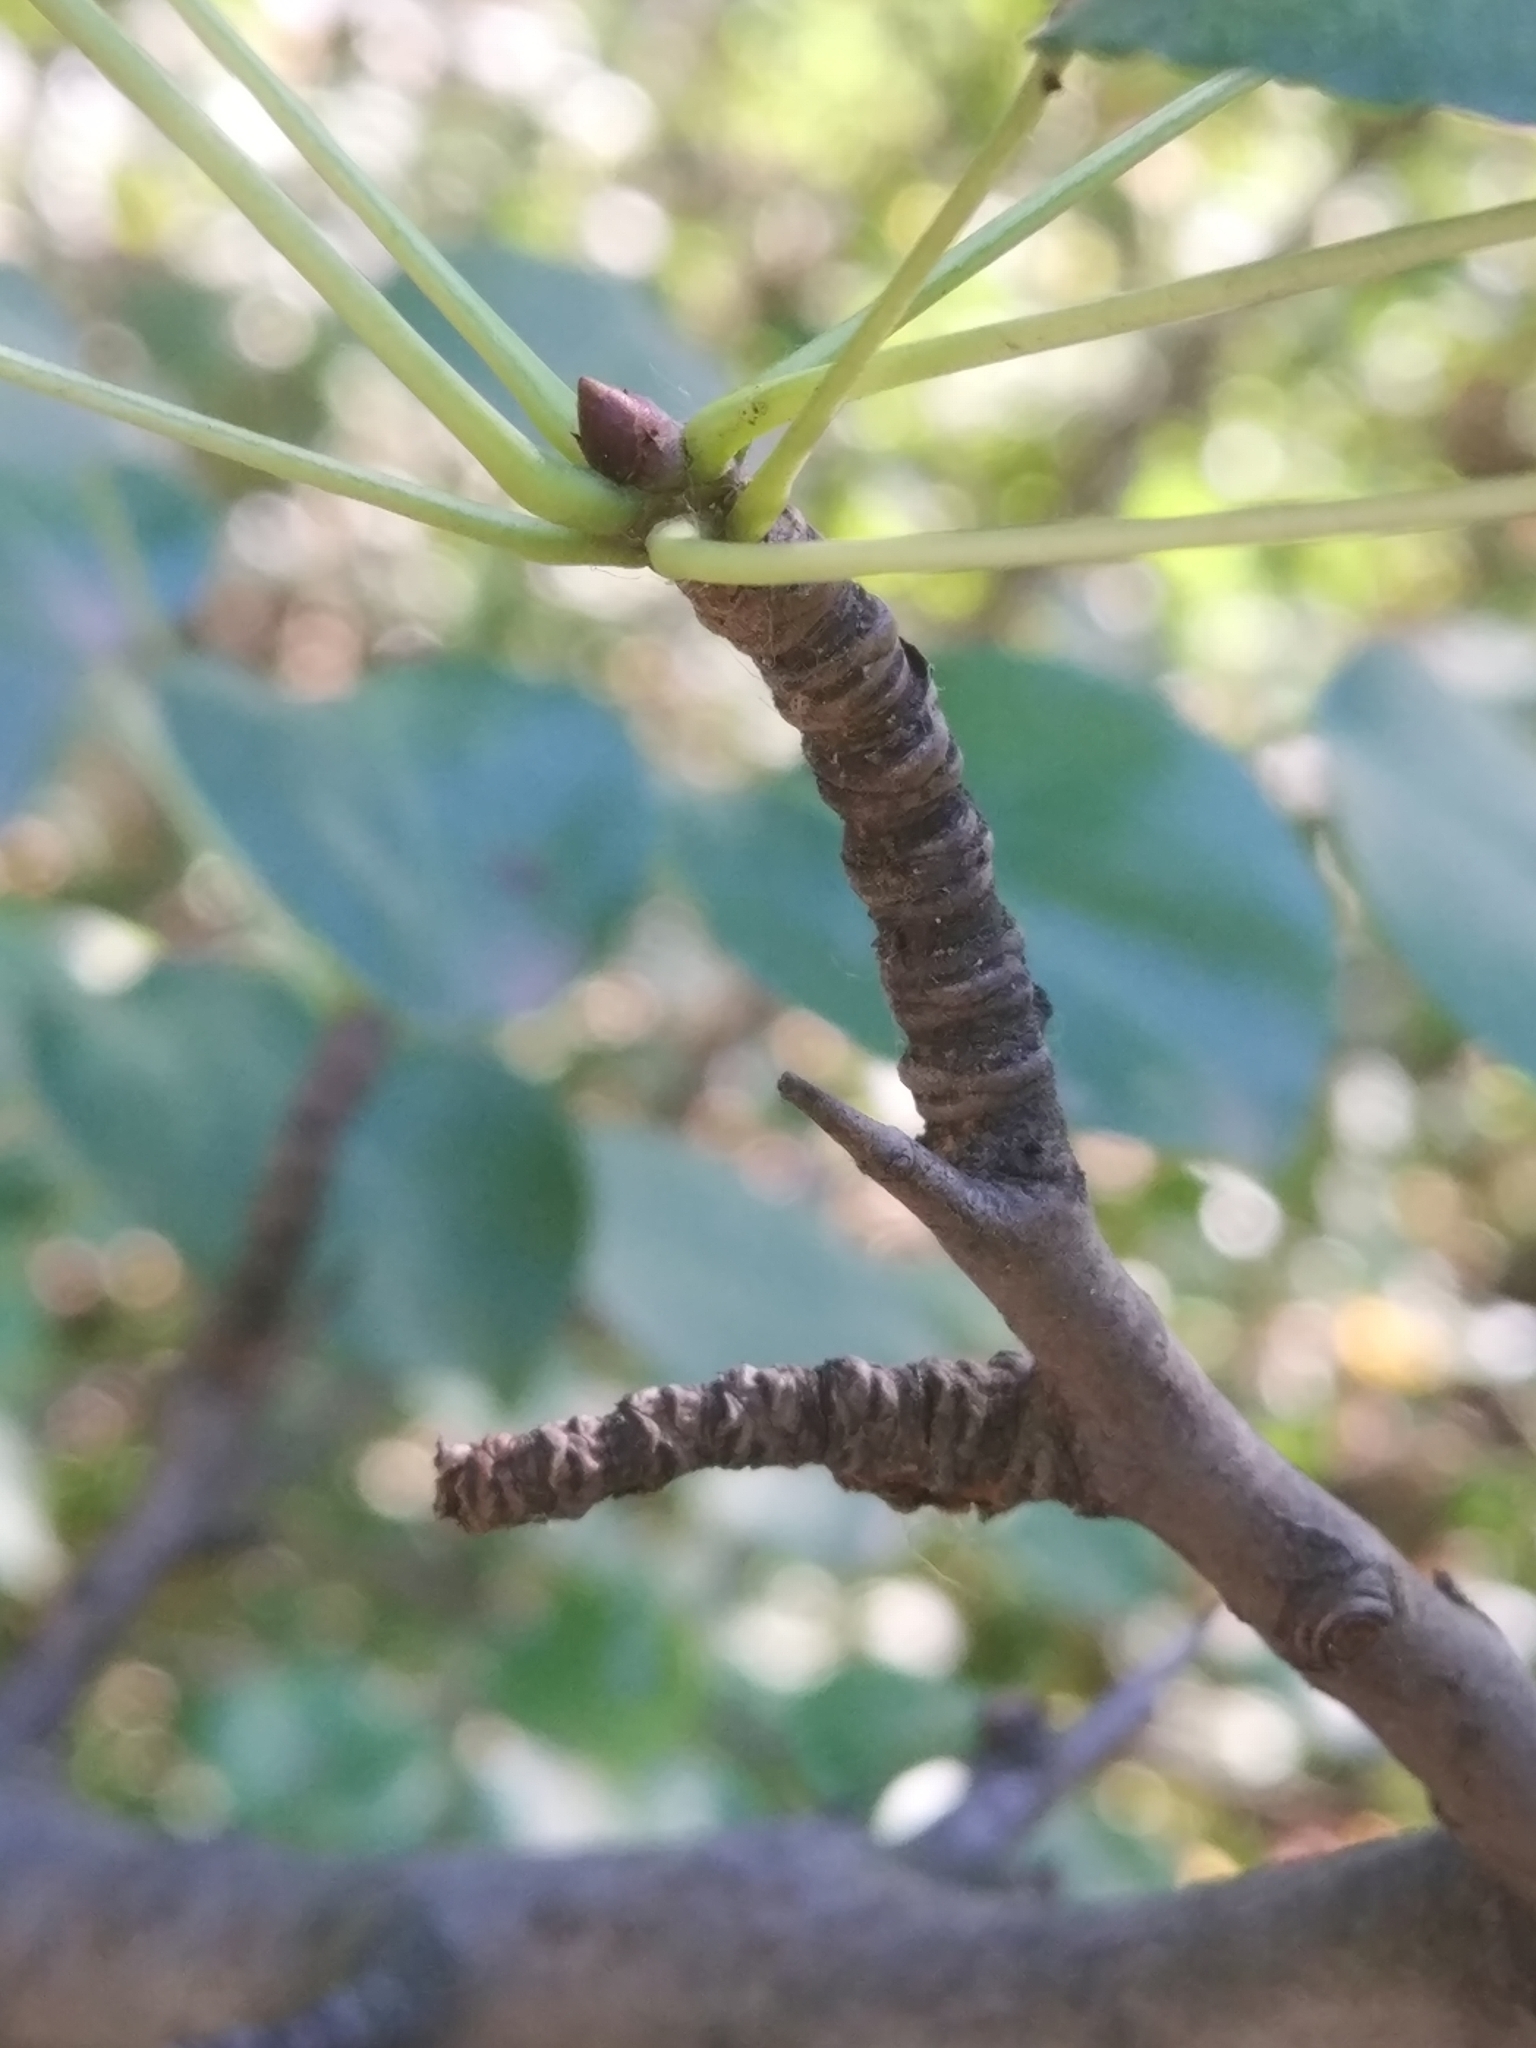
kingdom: Plantae
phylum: Tracheophyta
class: Magnoliopsida
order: Rosales
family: Rosaceae
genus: Pyrus
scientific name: Pyrus communis
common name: Pear
